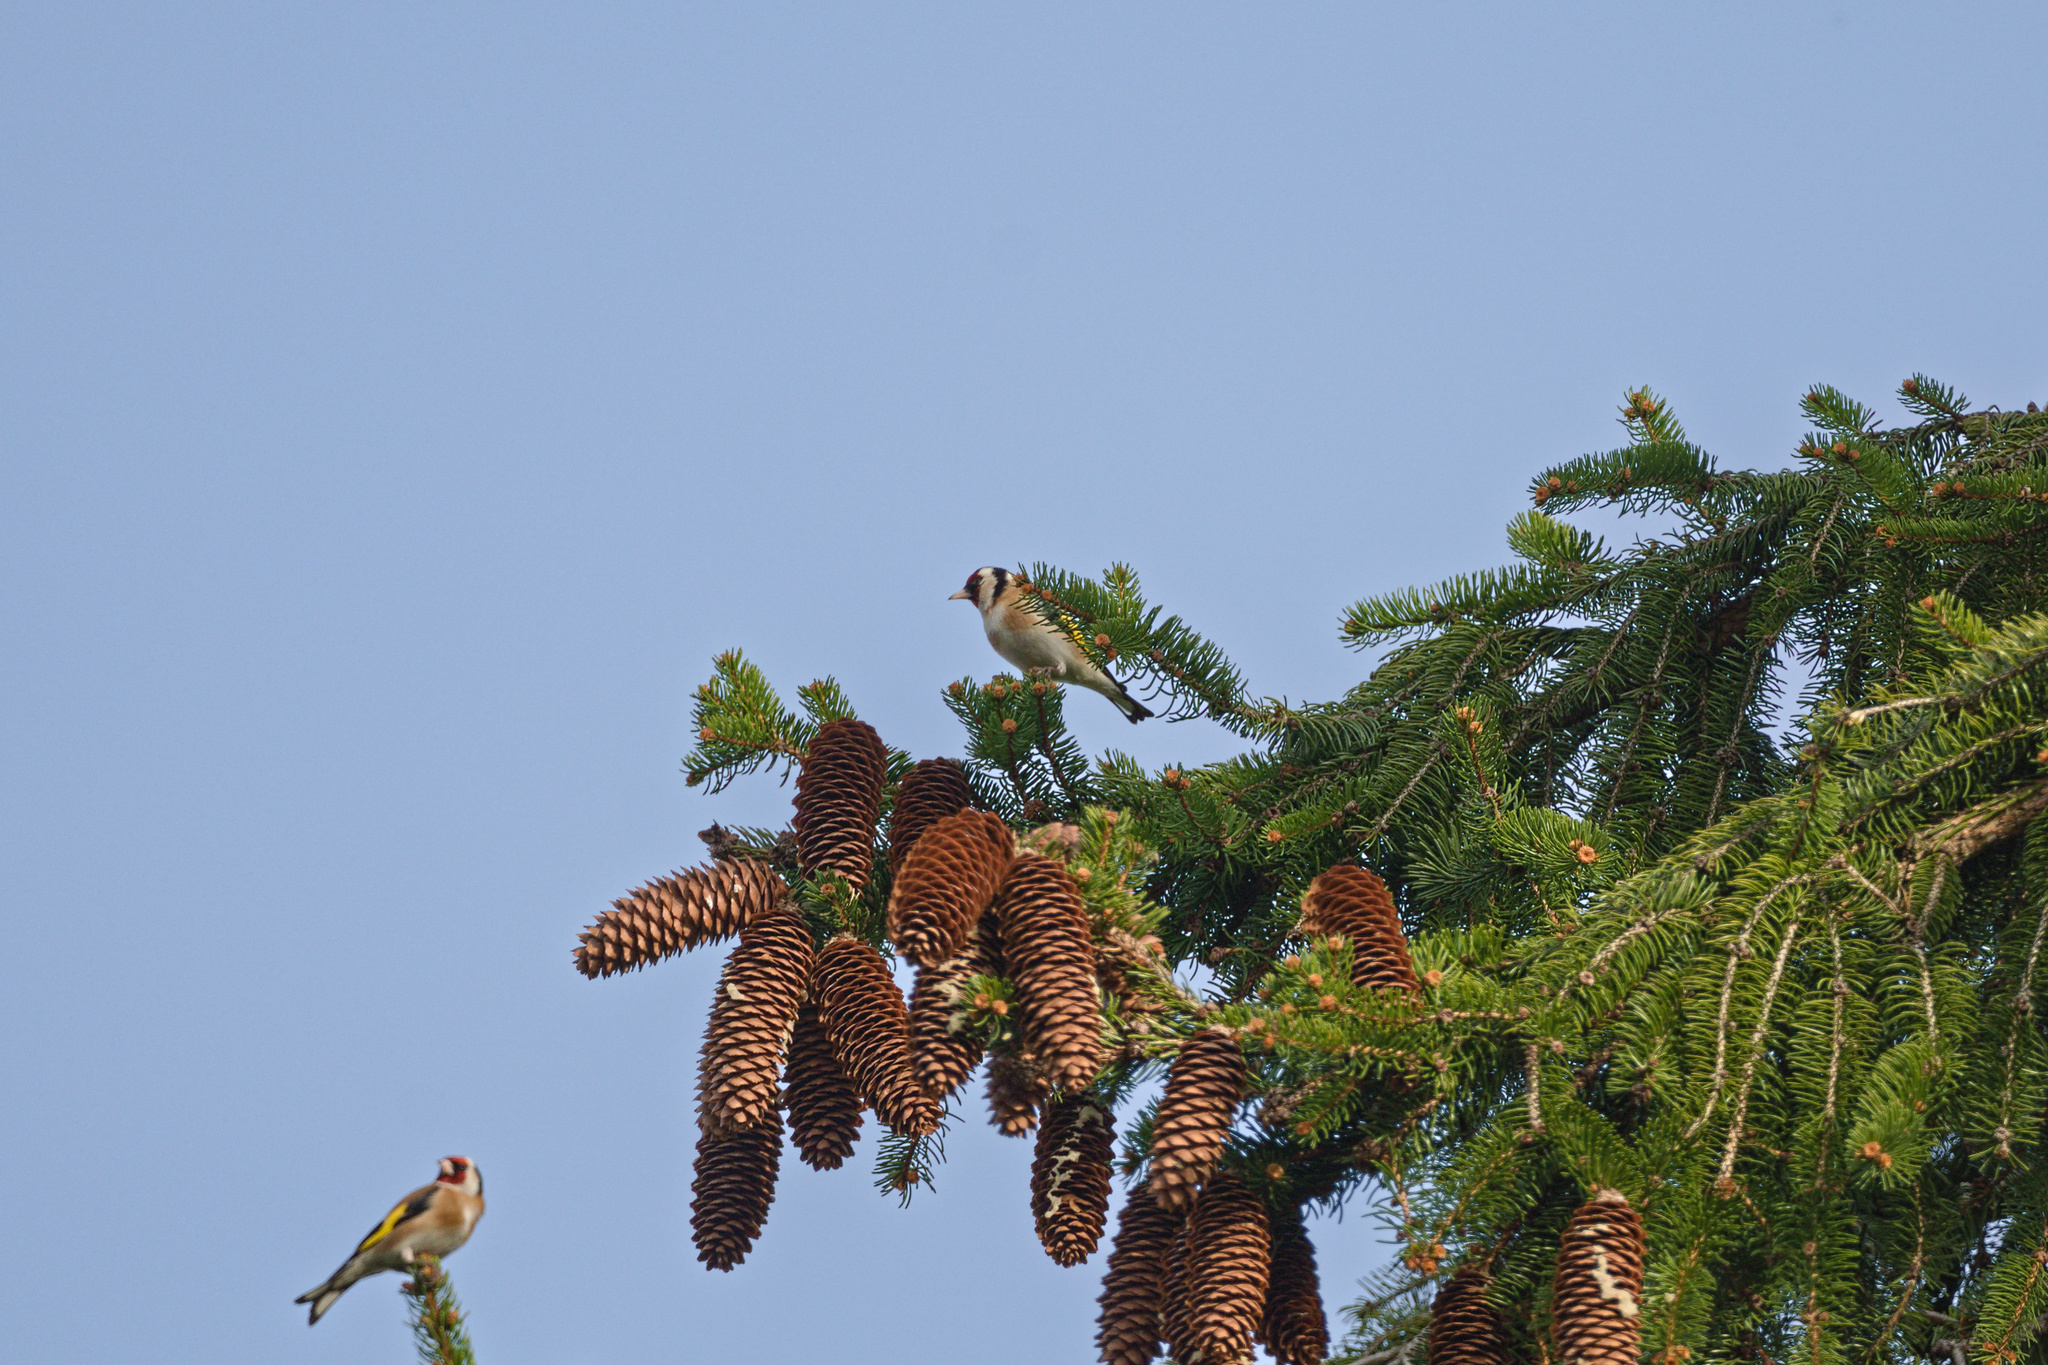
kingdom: Plantae
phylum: Tracheophyta
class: Pinopsida
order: Pinales
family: Pinaceae
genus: Picea
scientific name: Picea abies
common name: Norway spruce
